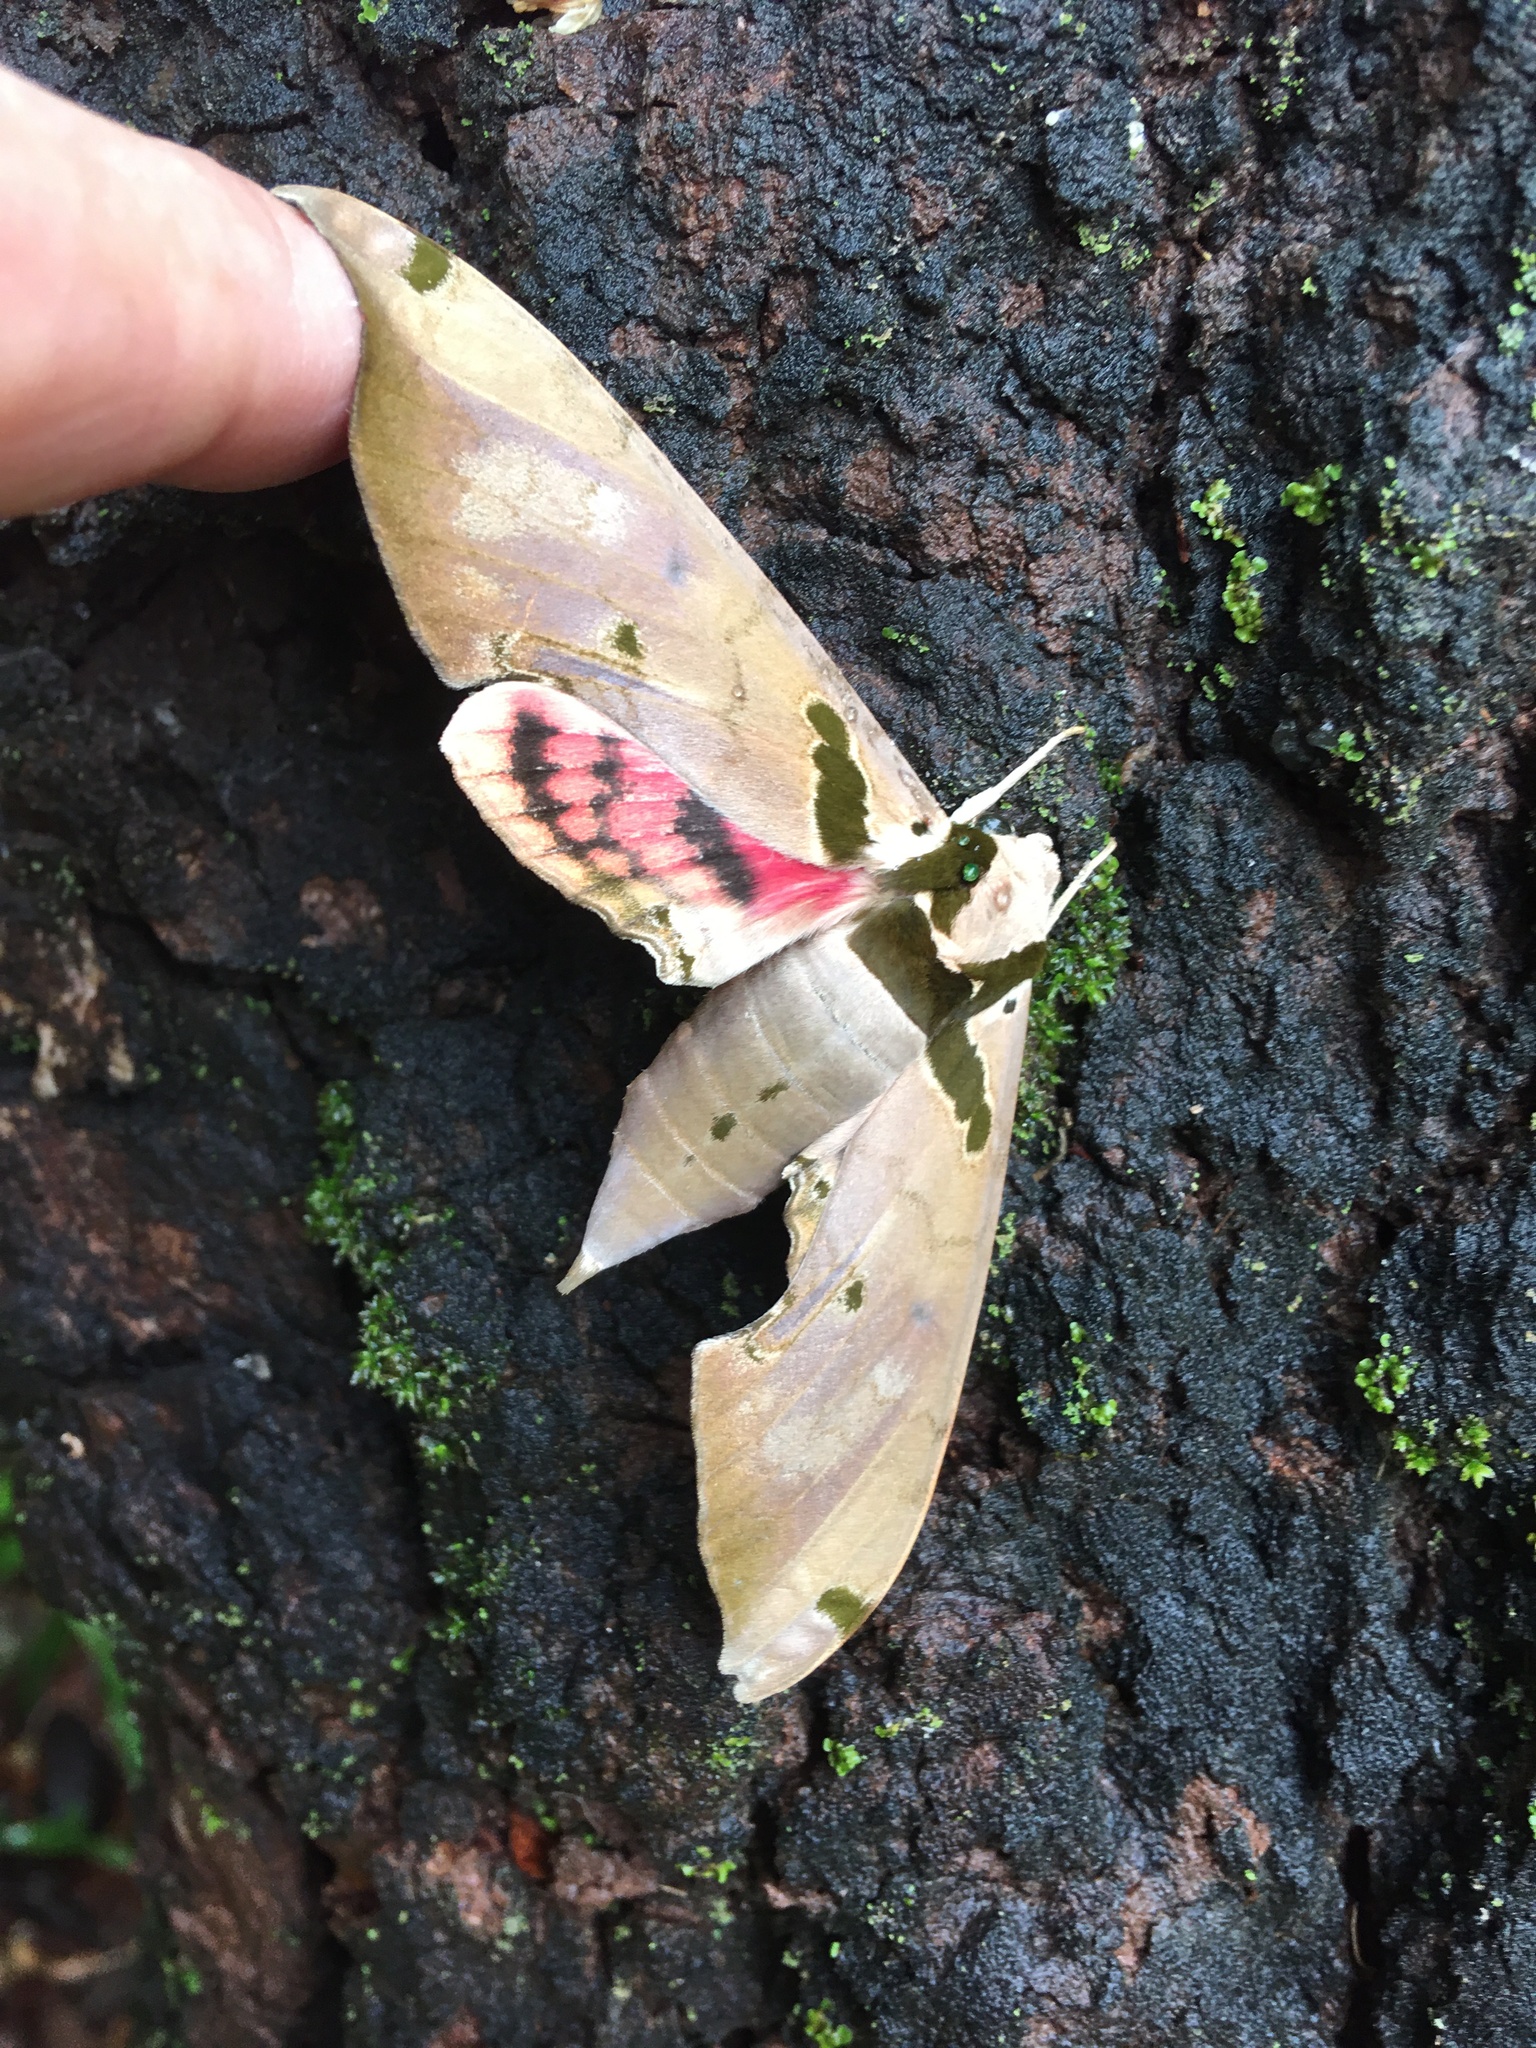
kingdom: Animalia
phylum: Arthropoda
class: Insecta
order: Lepidoptera
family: Sphingidae
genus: Adhemarius
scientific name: Adhemarius daphne
